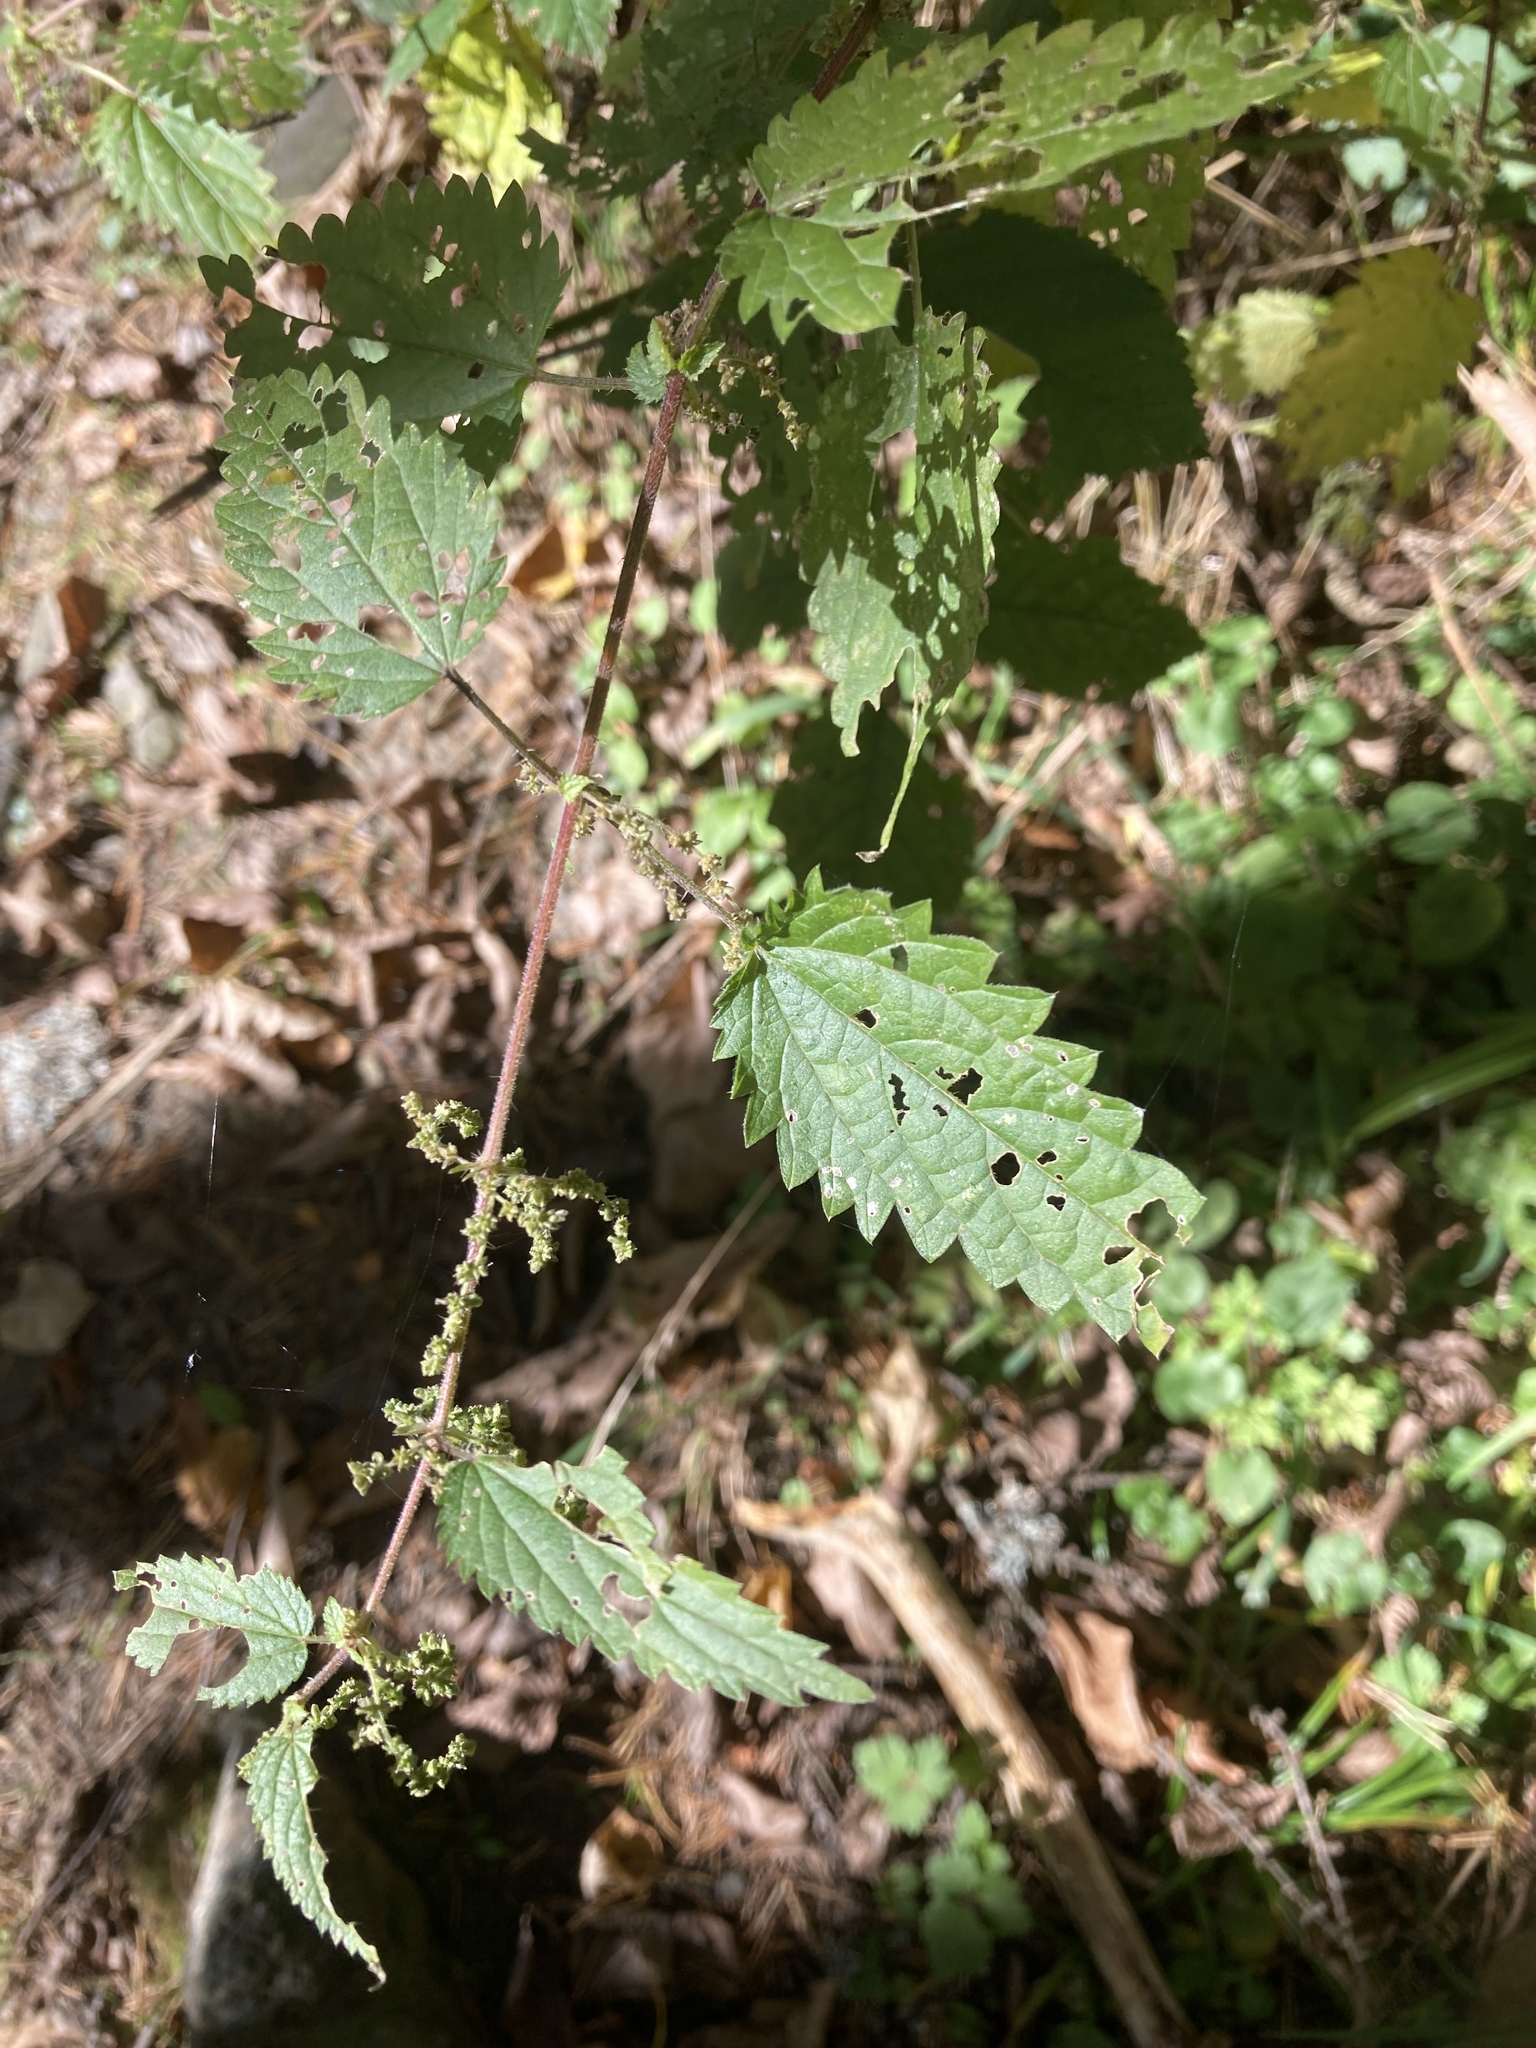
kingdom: Plantae
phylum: Tracheophyta
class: Magnoliopsida
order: Rosales
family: Urticaceae
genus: Urtica
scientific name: Urtica dioica
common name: Common nettle
